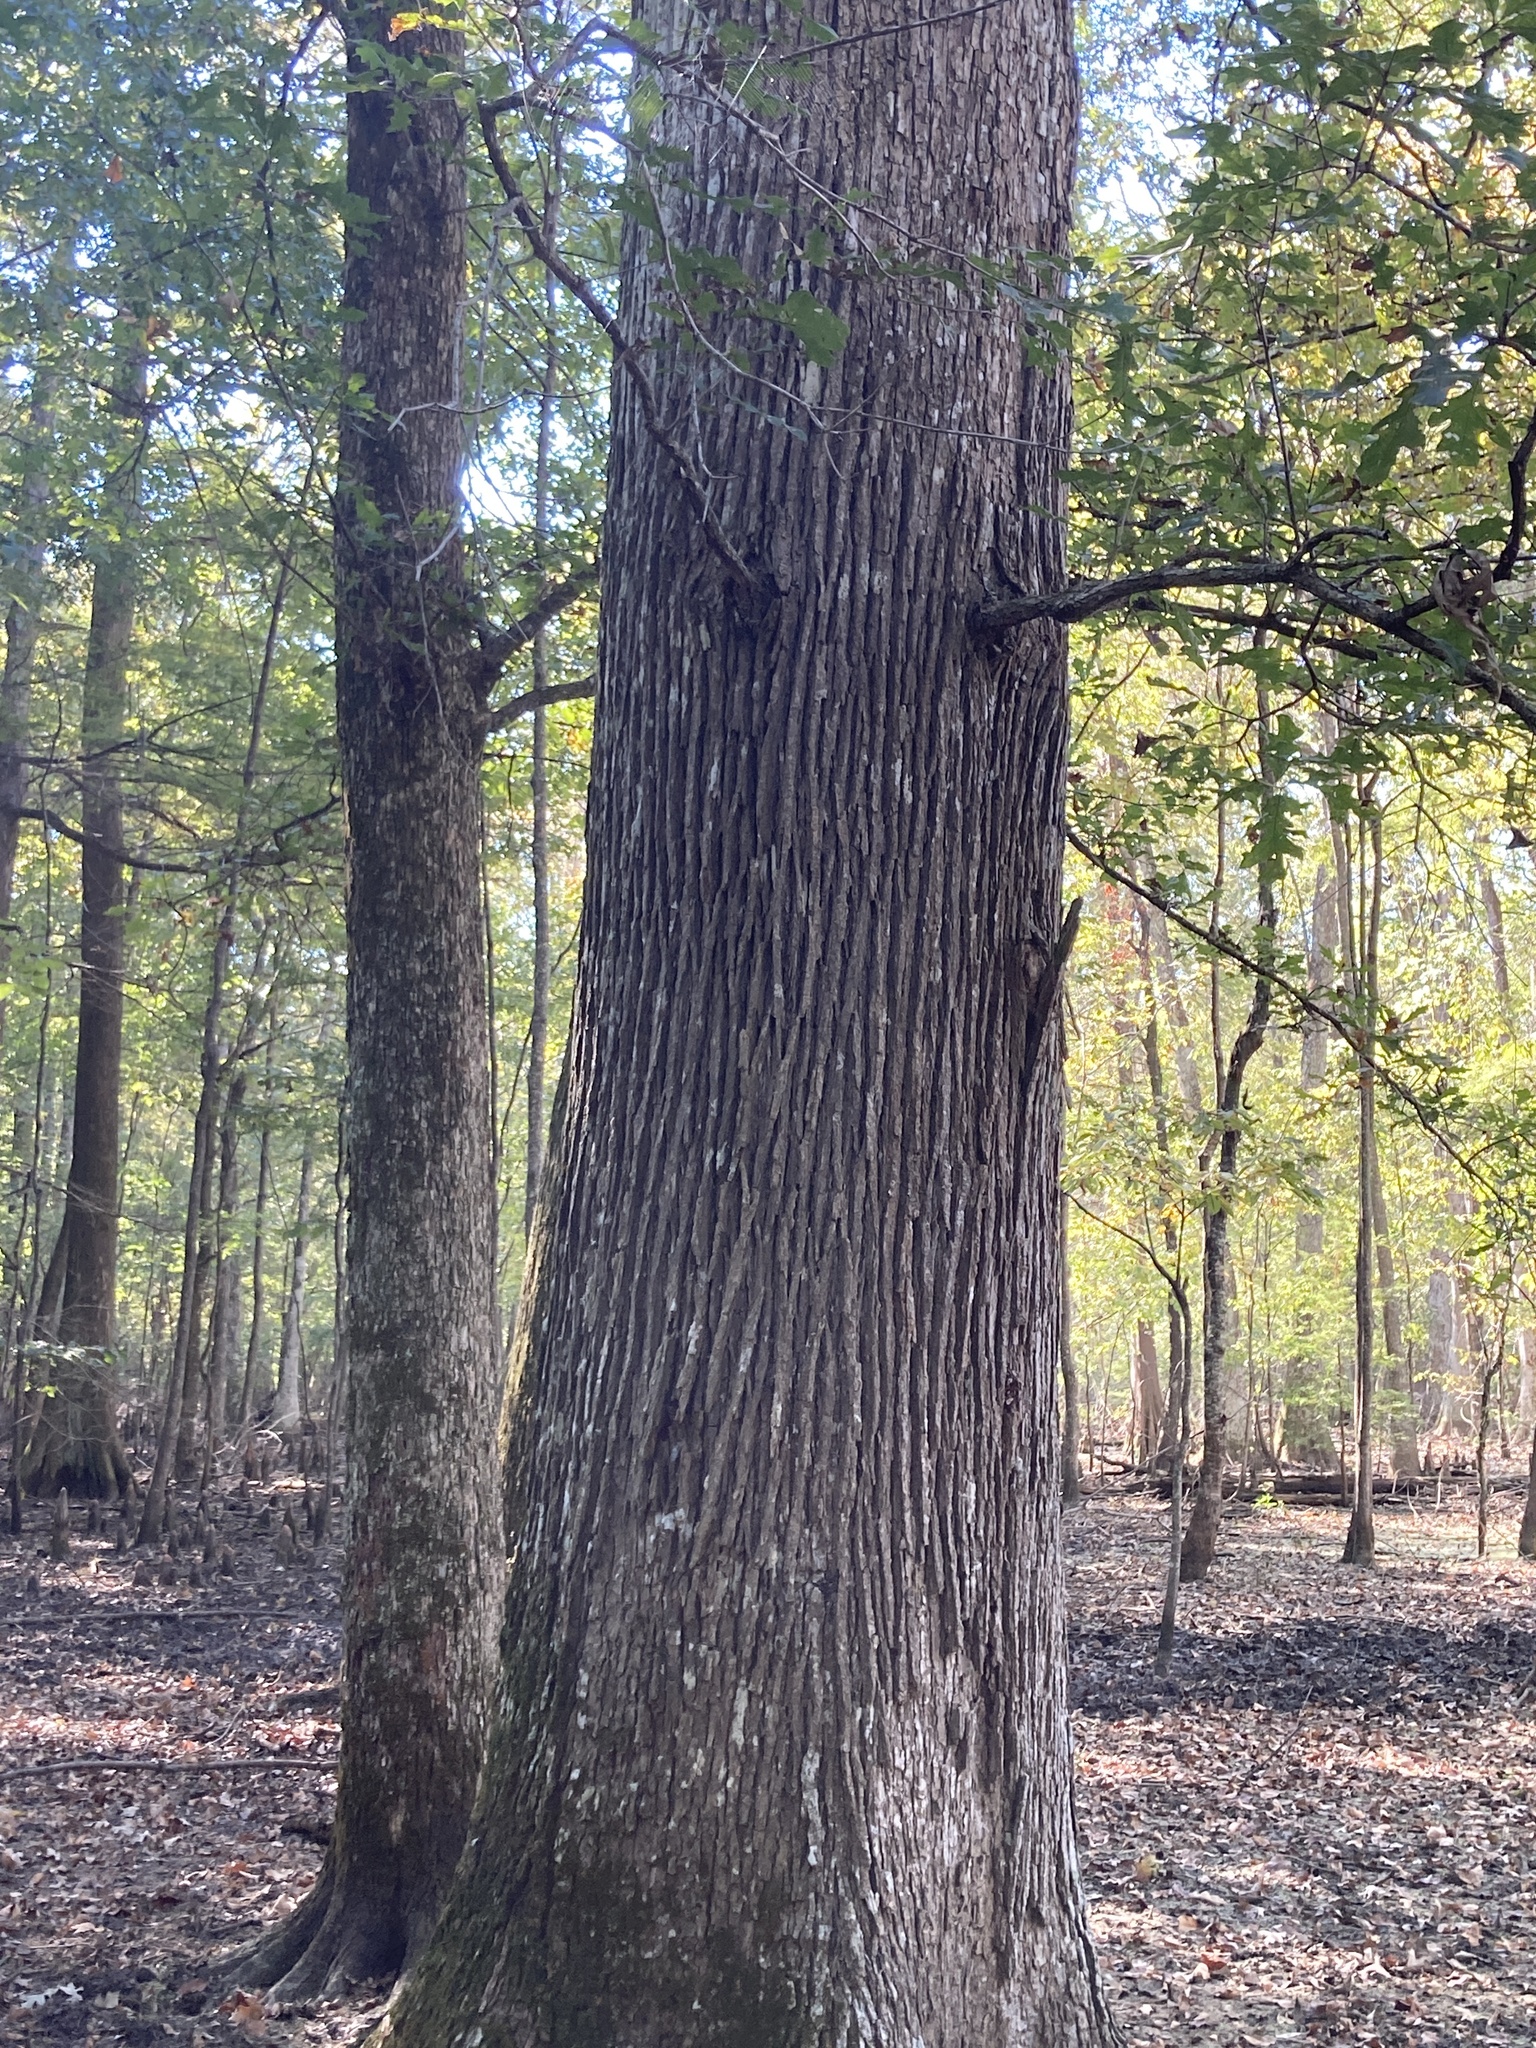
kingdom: Plantae
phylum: Tracheophyta
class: Magnoliopsida
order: Fagales
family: Fagaceae
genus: Quercus
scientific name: Quercus lyrata
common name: Overcup oak
